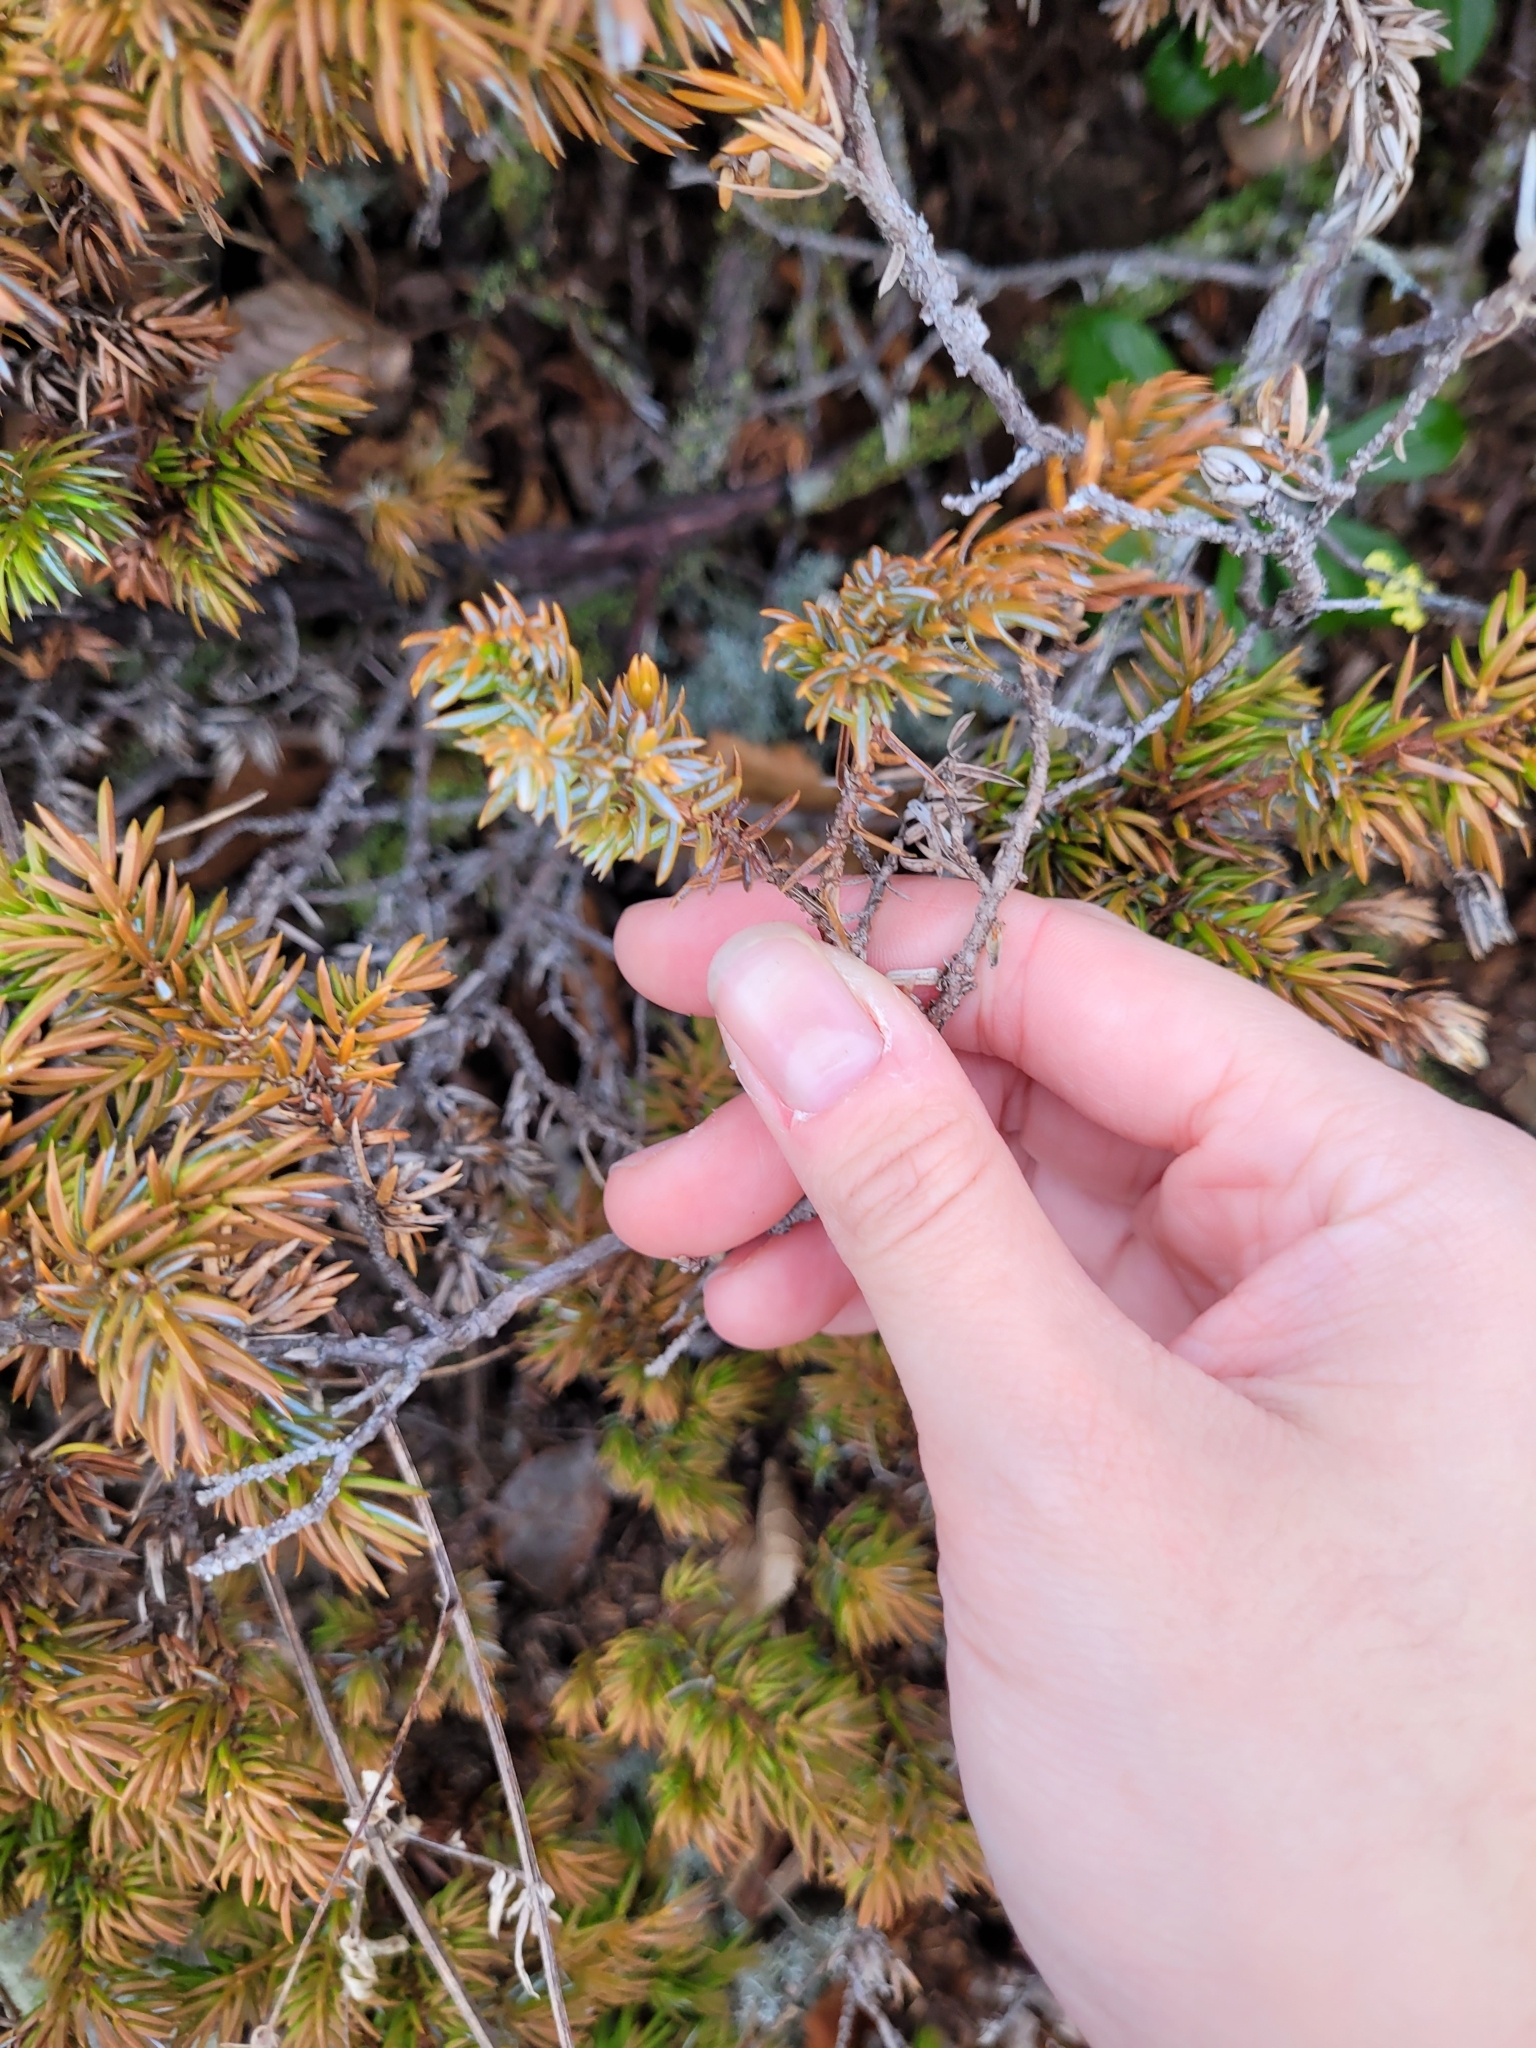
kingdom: Plantae
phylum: Tracheophyta
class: Pinopsida
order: Pinales
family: Cupressaceae
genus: Juniperus
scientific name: Juniperus communis
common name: Common juniper
